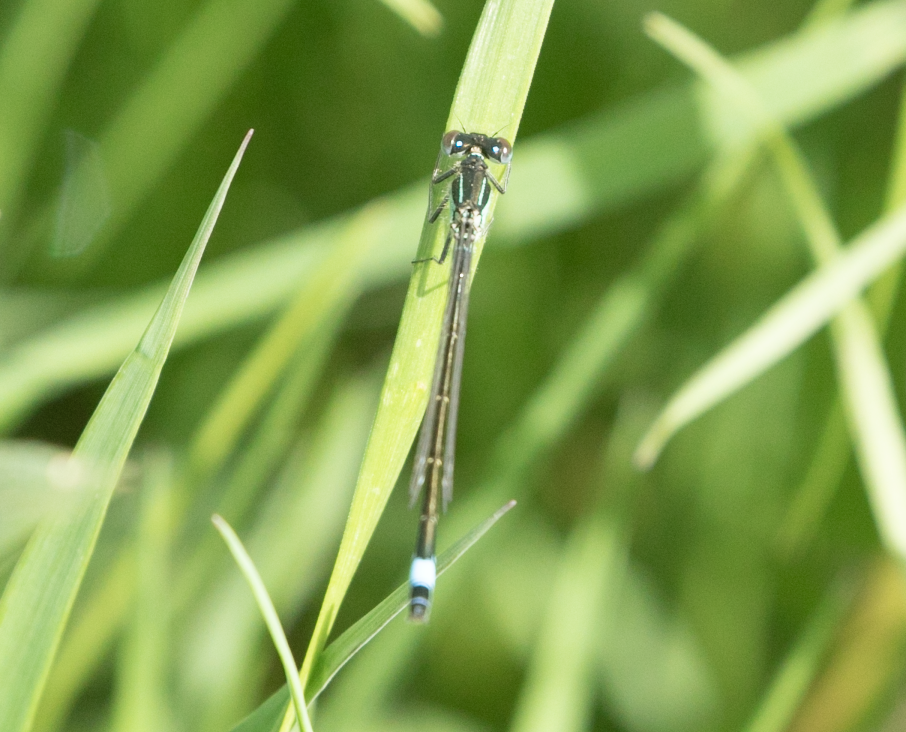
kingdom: Animalia
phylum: Arthropoda
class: Insecta
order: Odonata
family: Coenagrionidae
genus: Ischnura
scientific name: Ischnura elegans
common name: Blue-tailed damselfly
